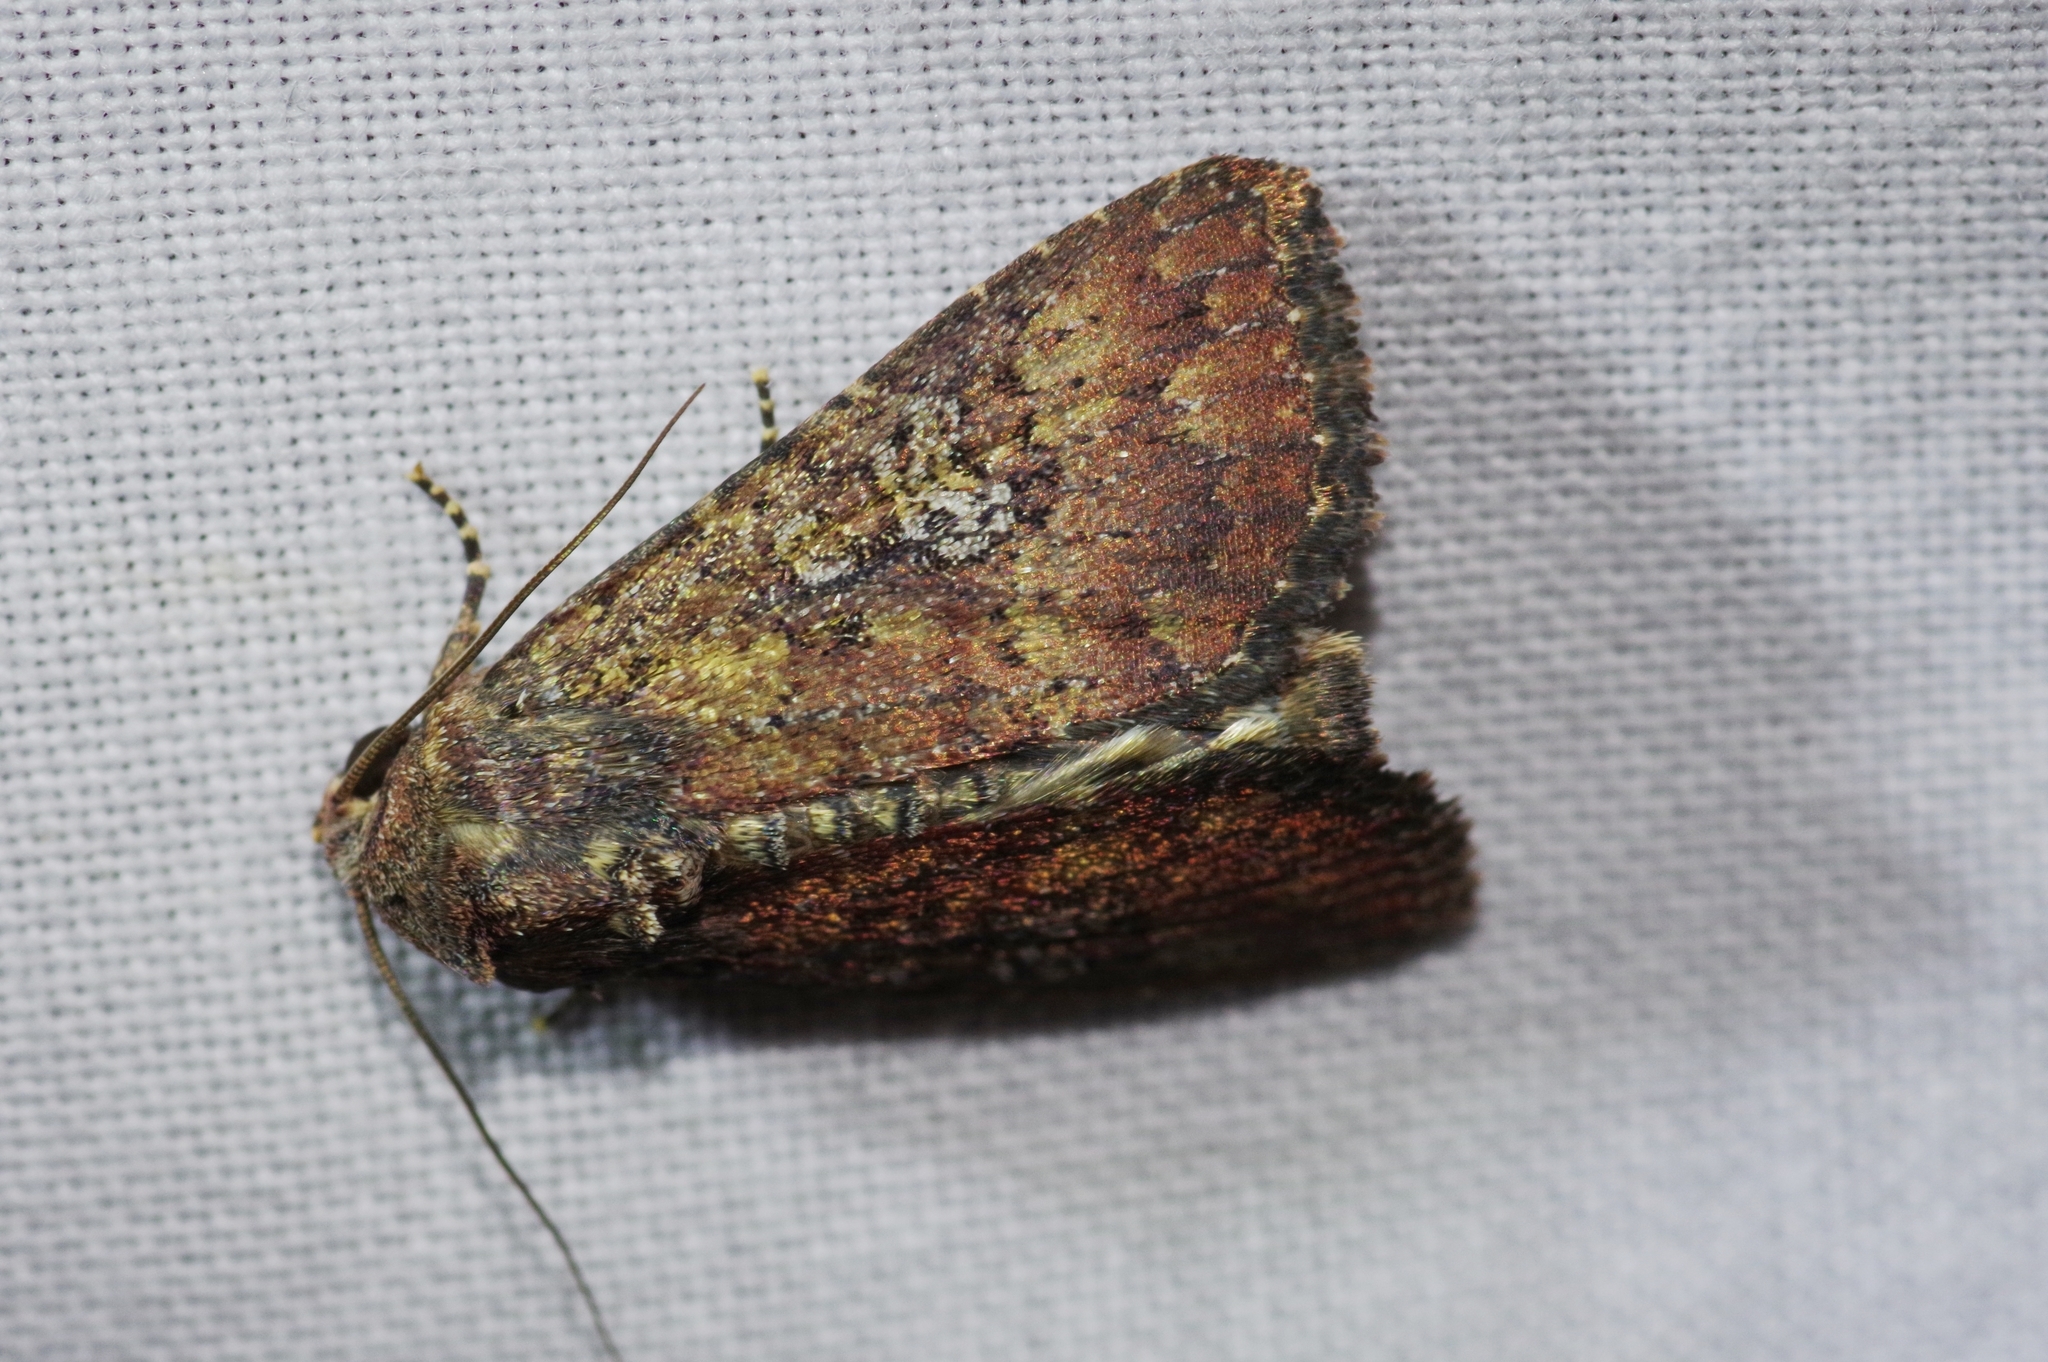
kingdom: Animalia
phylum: Arthropoda
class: Insecta
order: Lepidoptera
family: Noctuidae
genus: Condica
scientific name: Condica illecta
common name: Cutworm
